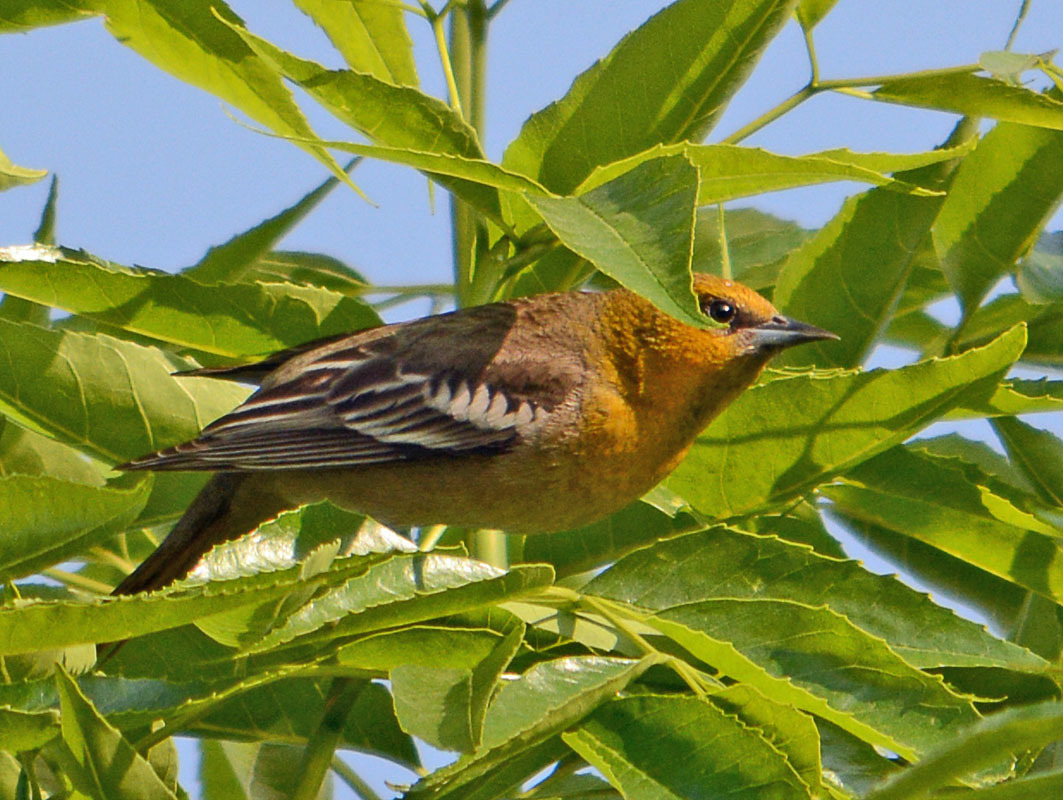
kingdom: Animalia
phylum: Chordata
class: Aves
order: Passeriformes
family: Icteridae
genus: Icterus
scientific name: Icterus bullockii
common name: Bullock's oriole
